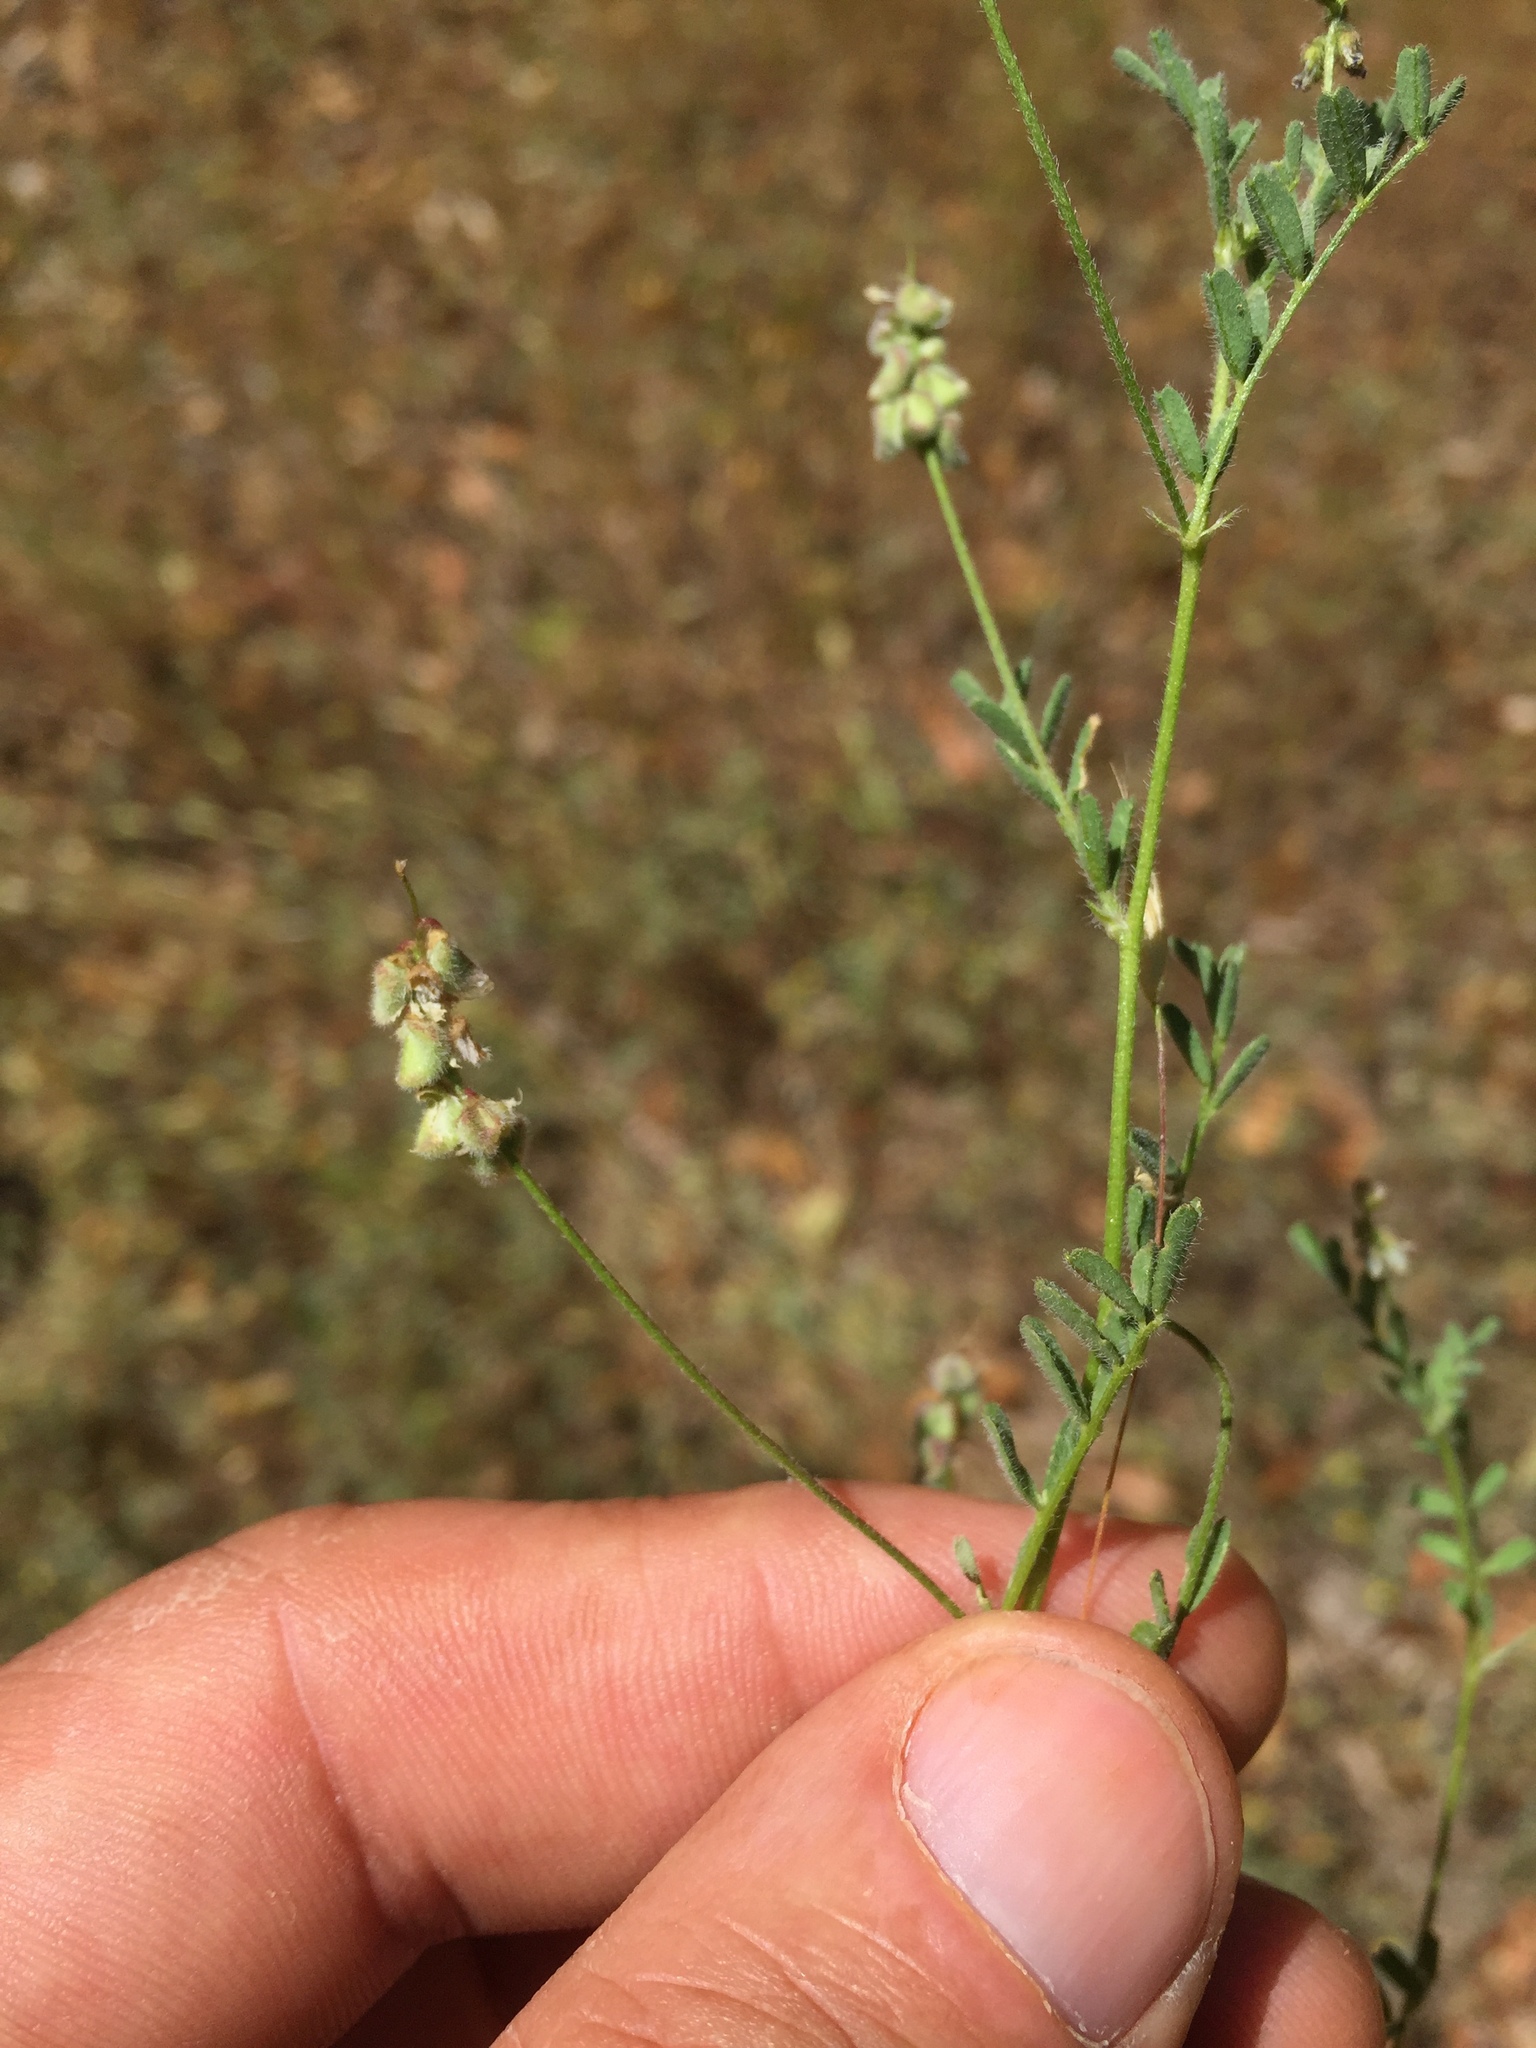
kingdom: Plantae
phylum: Tracheophyta
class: Magnoliopsida
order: Fabales
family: Fabaceae
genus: Astragalus
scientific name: Astragalus gambelianus
